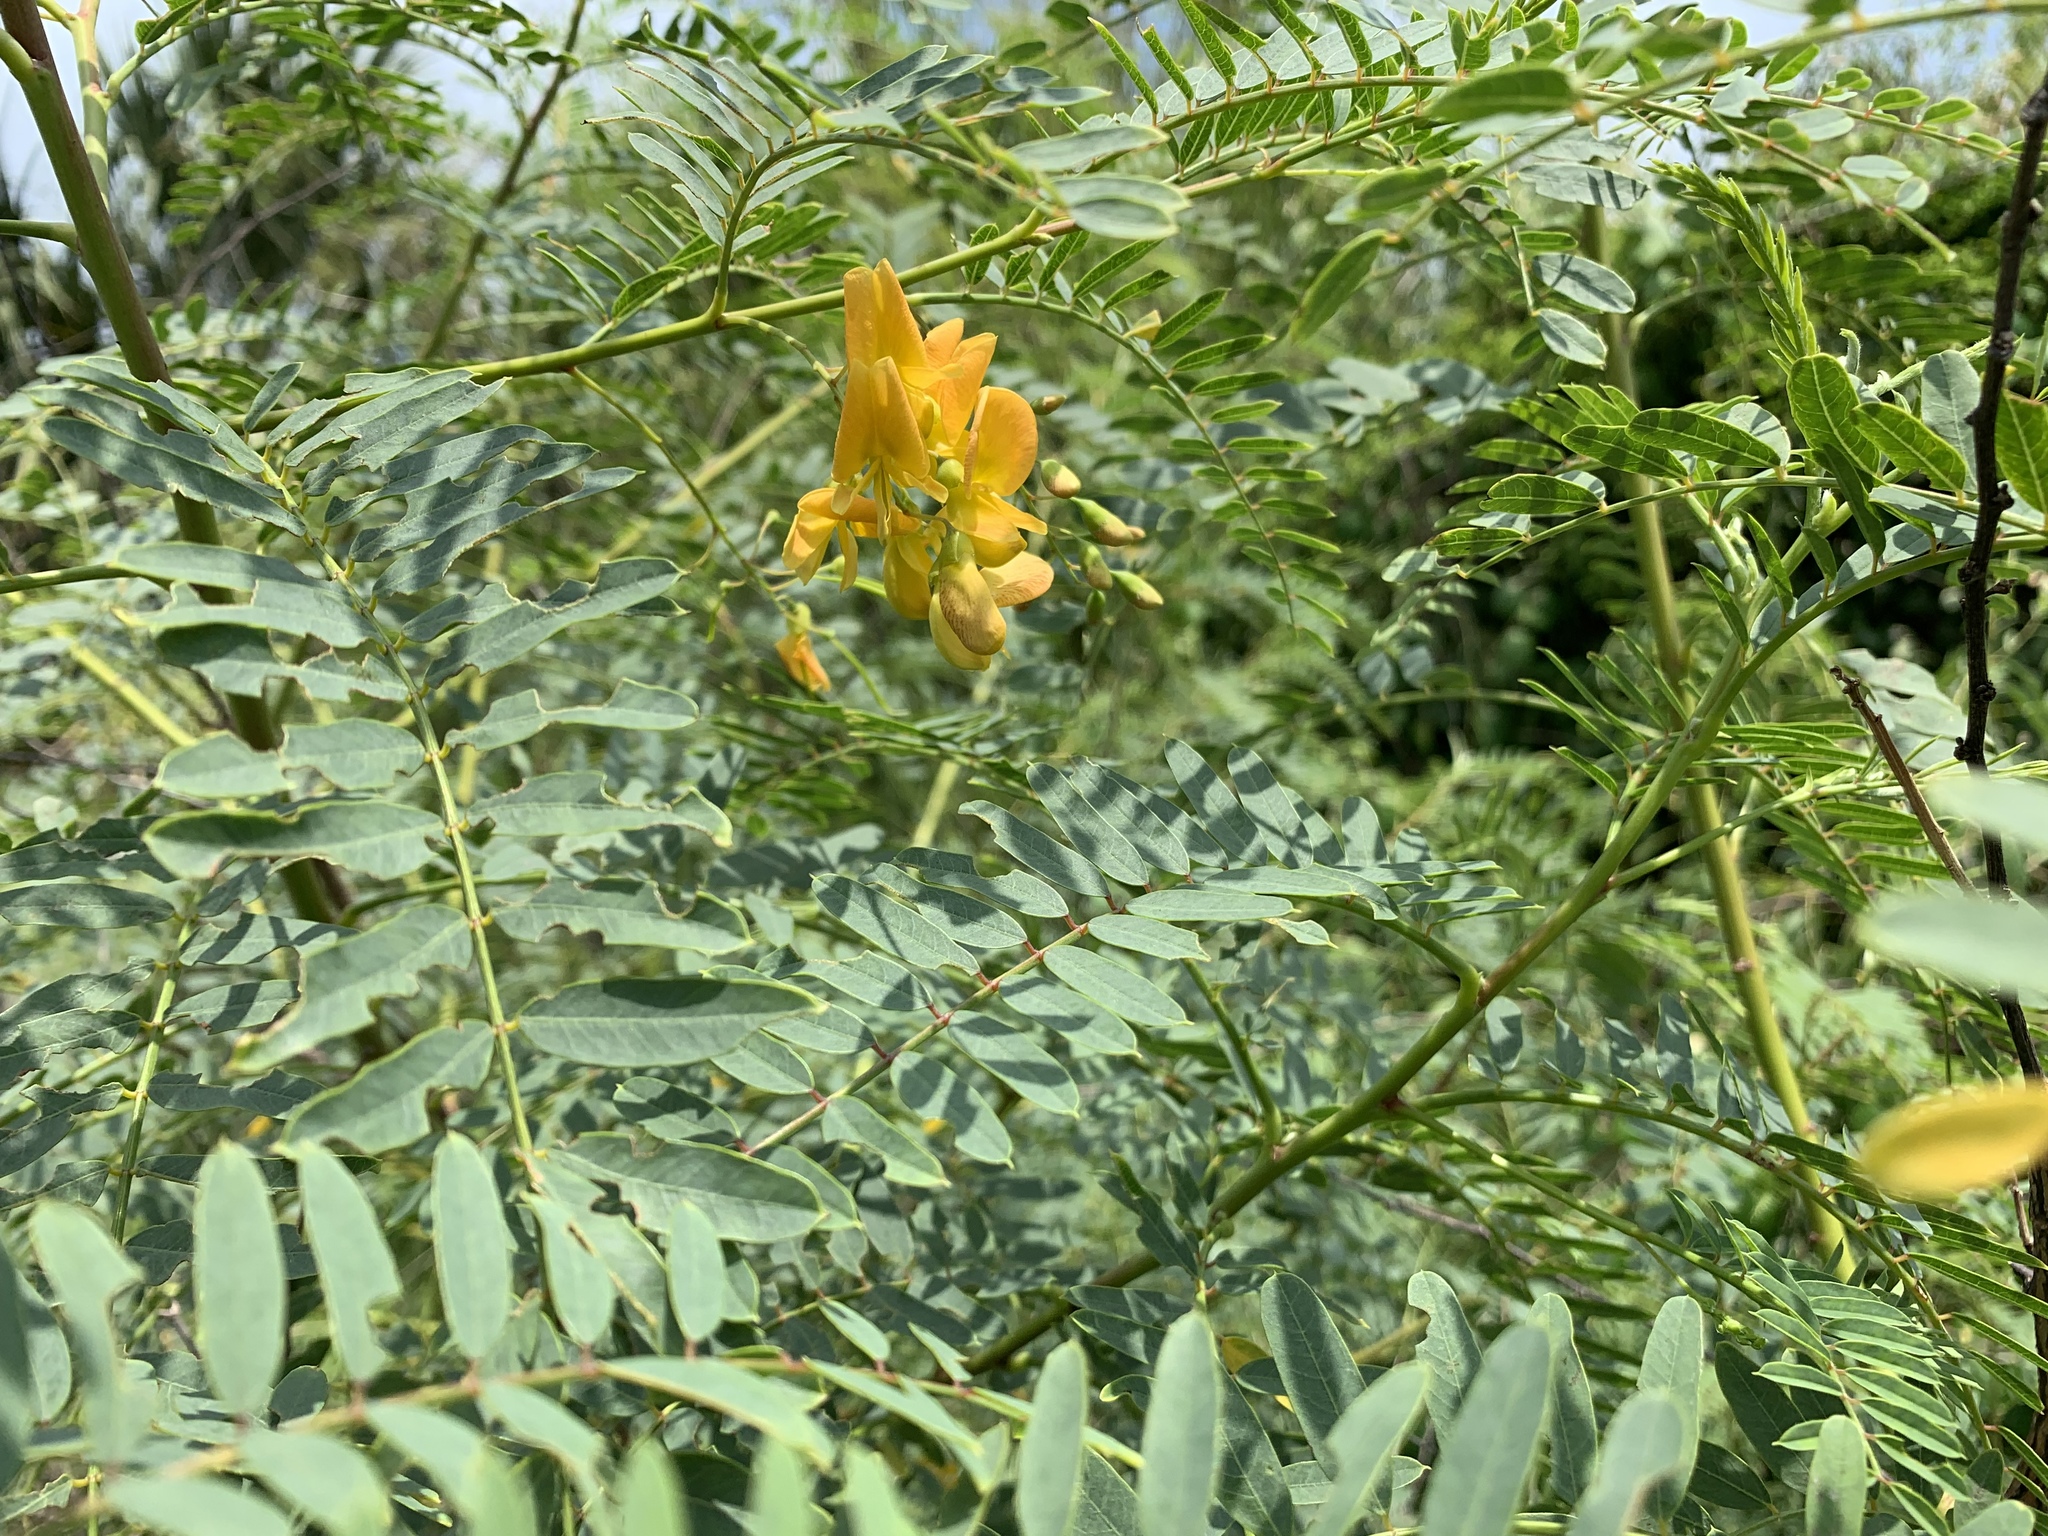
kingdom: Plantae
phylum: Tracheophyta
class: Magnoliopsida
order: Fabales
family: Fabaceae
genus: Sesbania
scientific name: Sesbania drummondii
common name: Poison-bean
